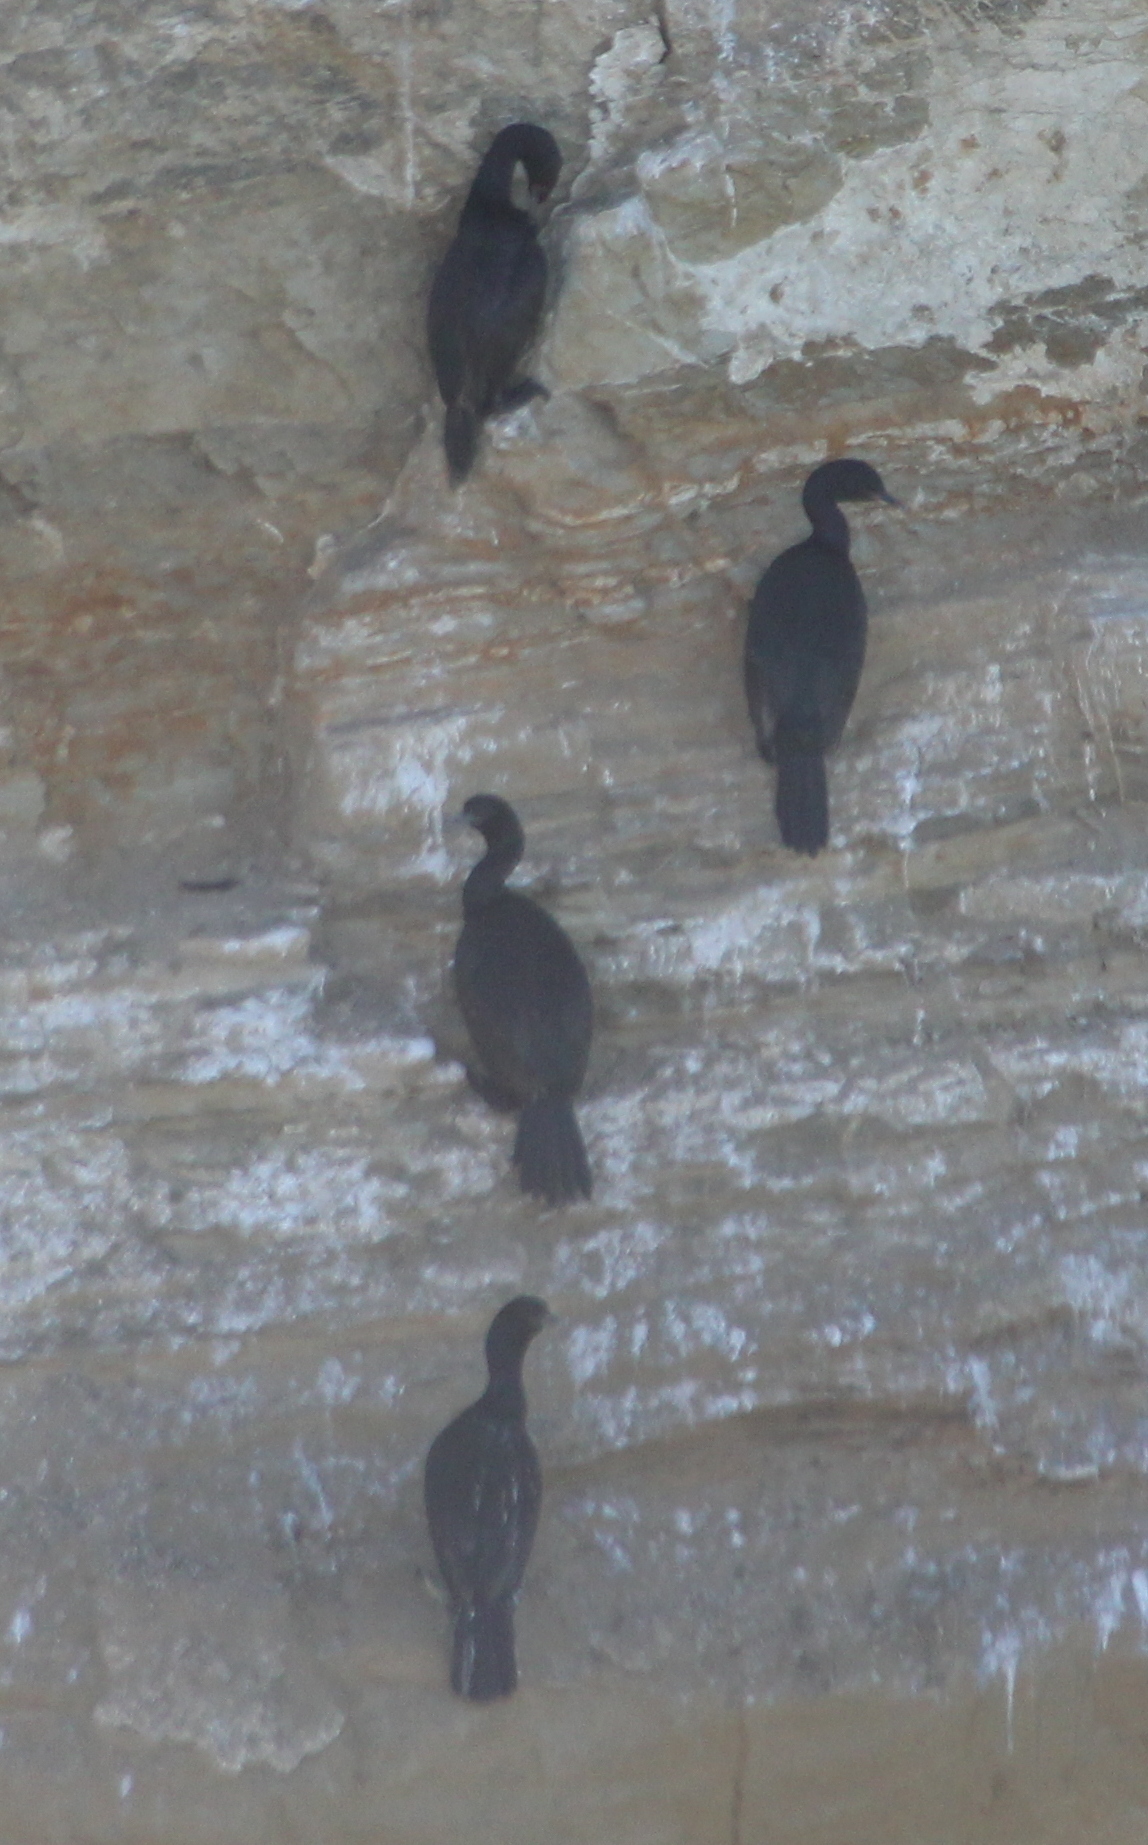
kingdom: Animalia
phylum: Chordata
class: Aves
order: Suliformes
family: Phalacrocoracidae
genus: Phalacrocorax
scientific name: Phalacrocorax pelagicus
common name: Pelagic cormorant
